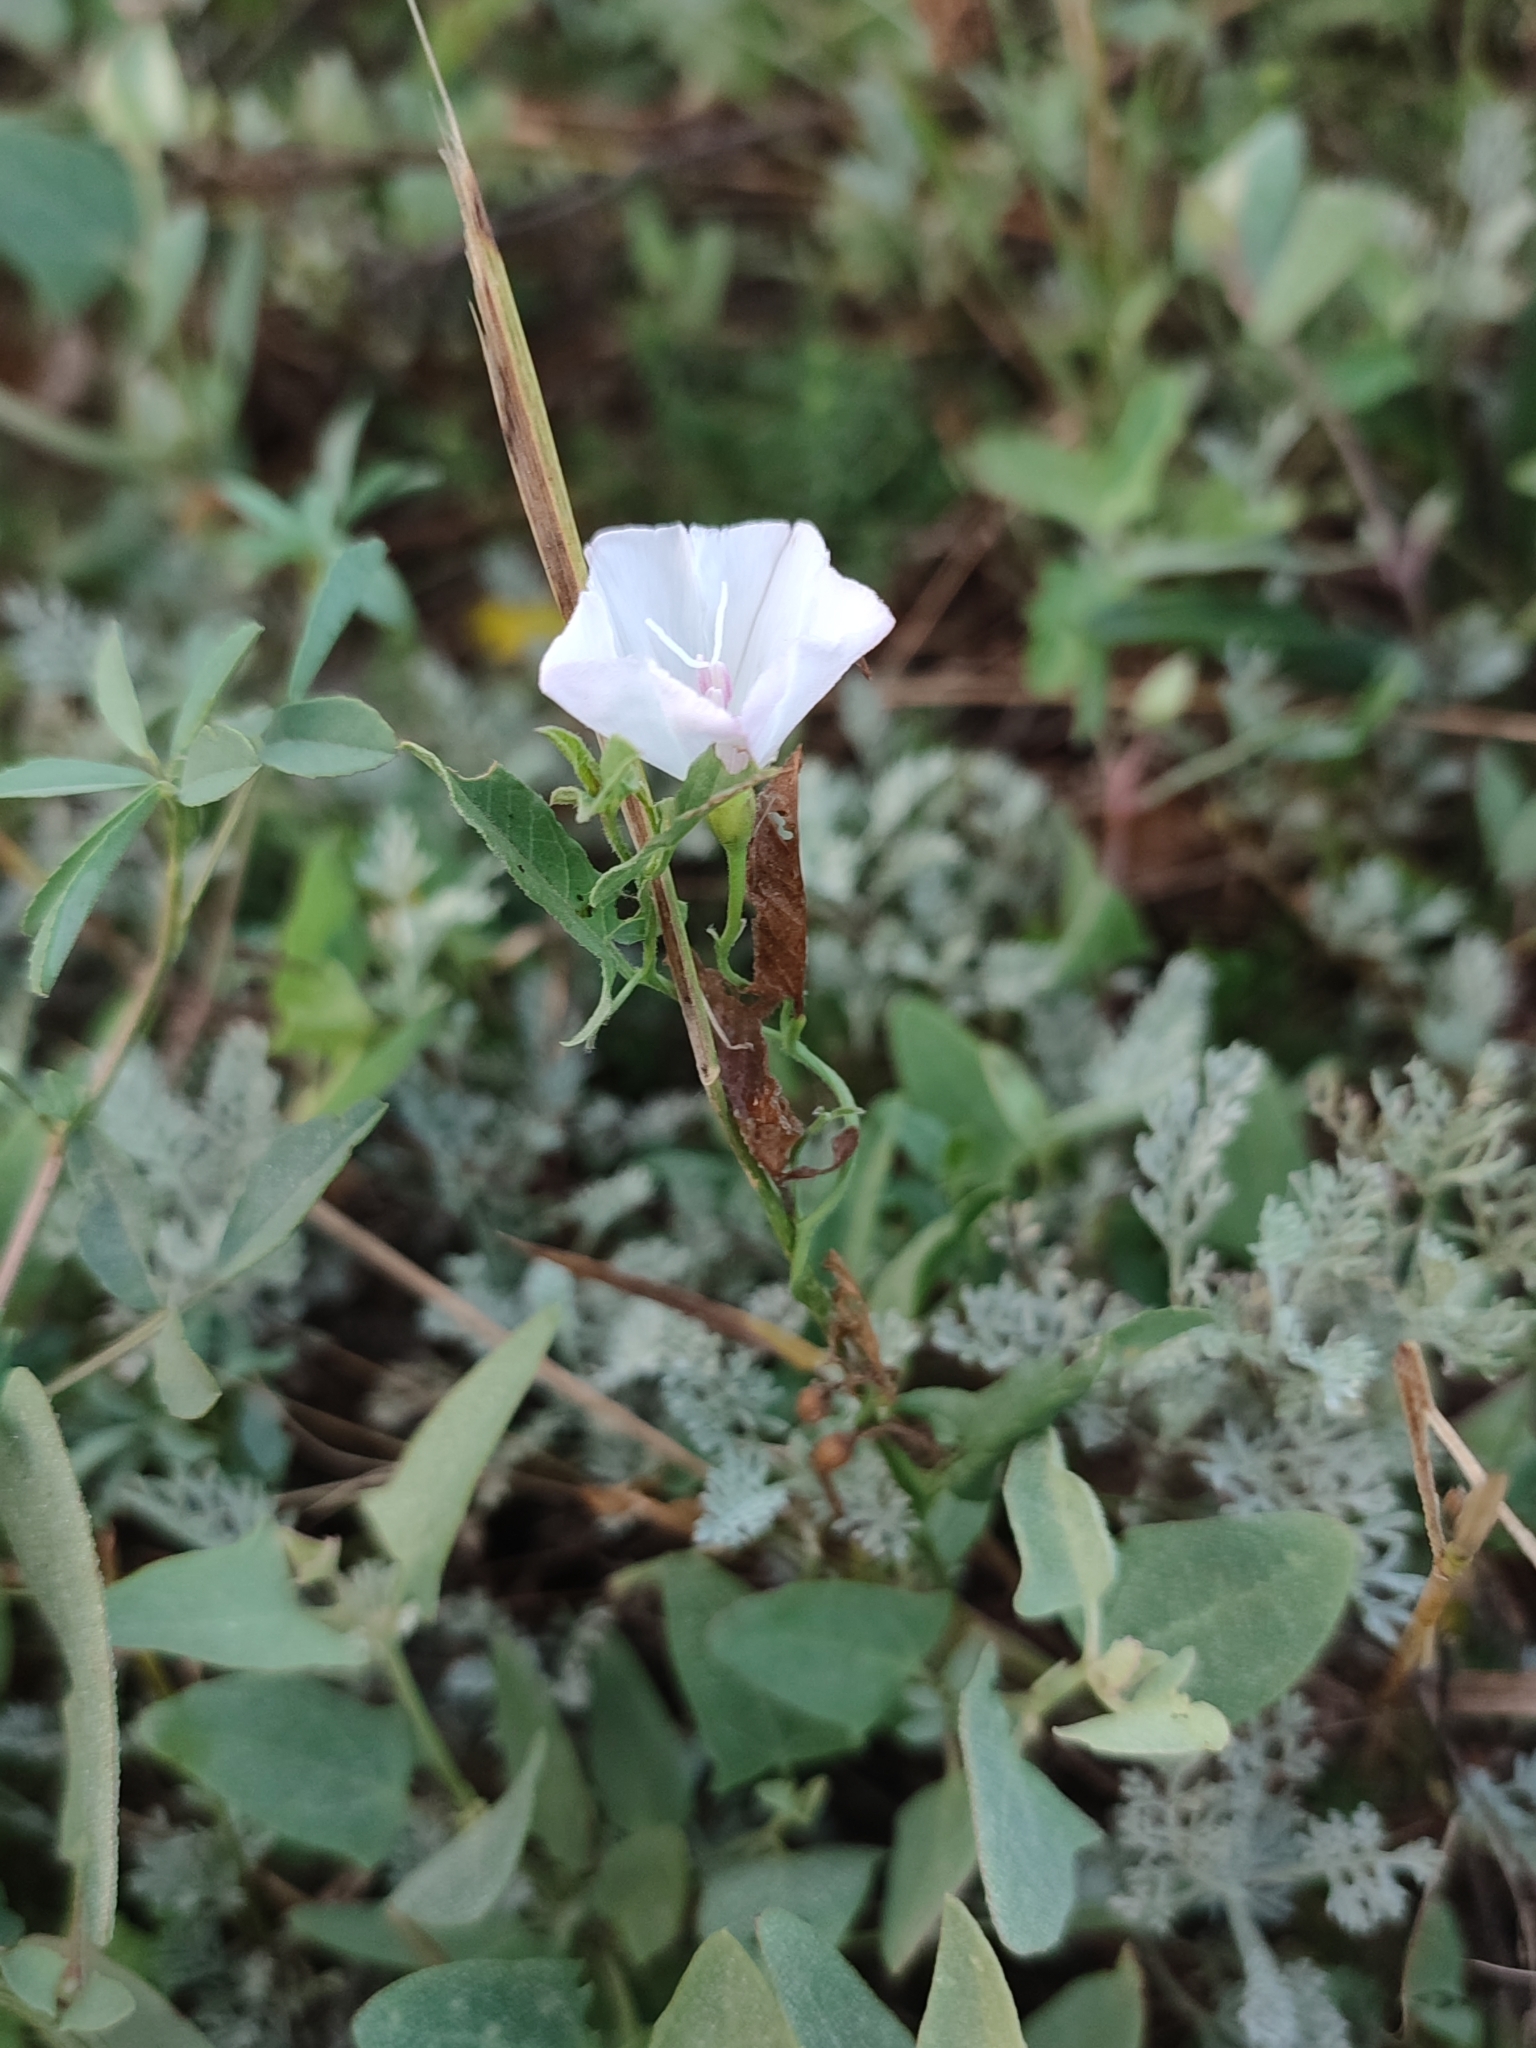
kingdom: Plantae
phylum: Tracheophyta
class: Magnoliopsida
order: Solanales
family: Convolvulaceae
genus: Convolvulus
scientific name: Convolvulus arvensis
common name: Field bindweed
